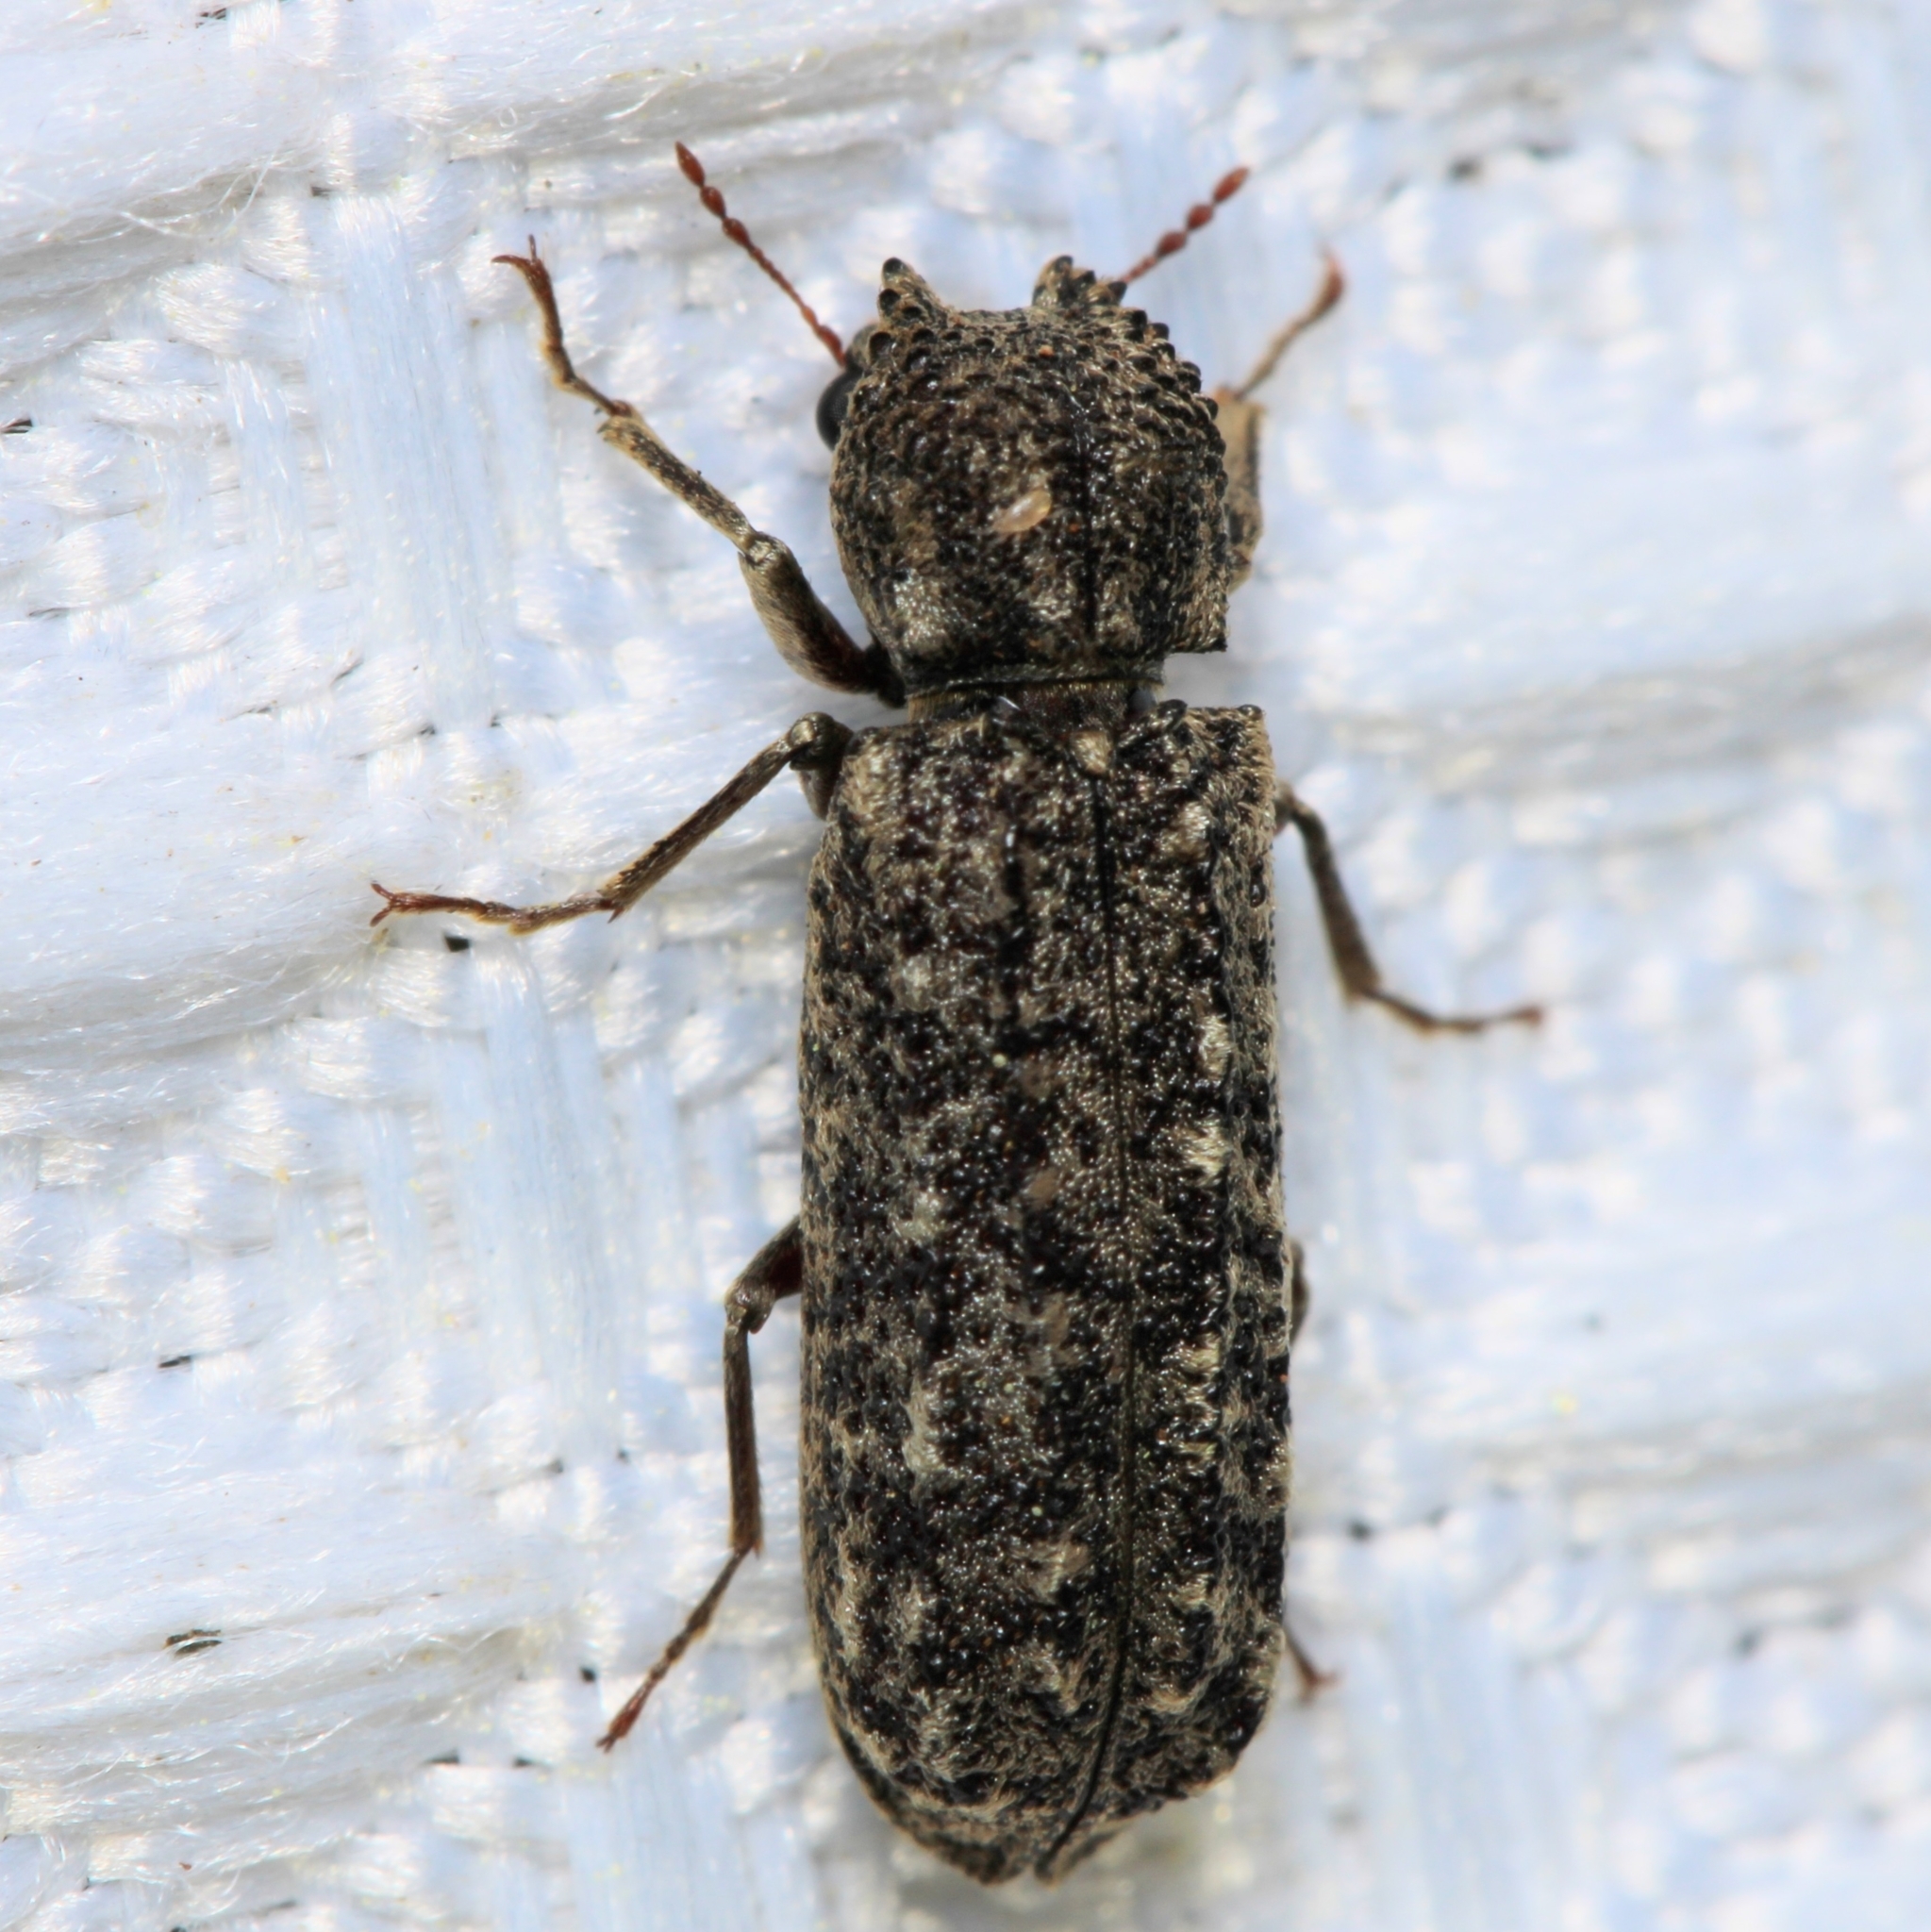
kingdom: Animalia
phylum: Arthropoda
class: Insecta
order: Coleoptera
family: Bostrichidae
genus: Lichenophanes
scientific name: Lichenophanes bicornis
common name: Two-horned powder-post beetle
